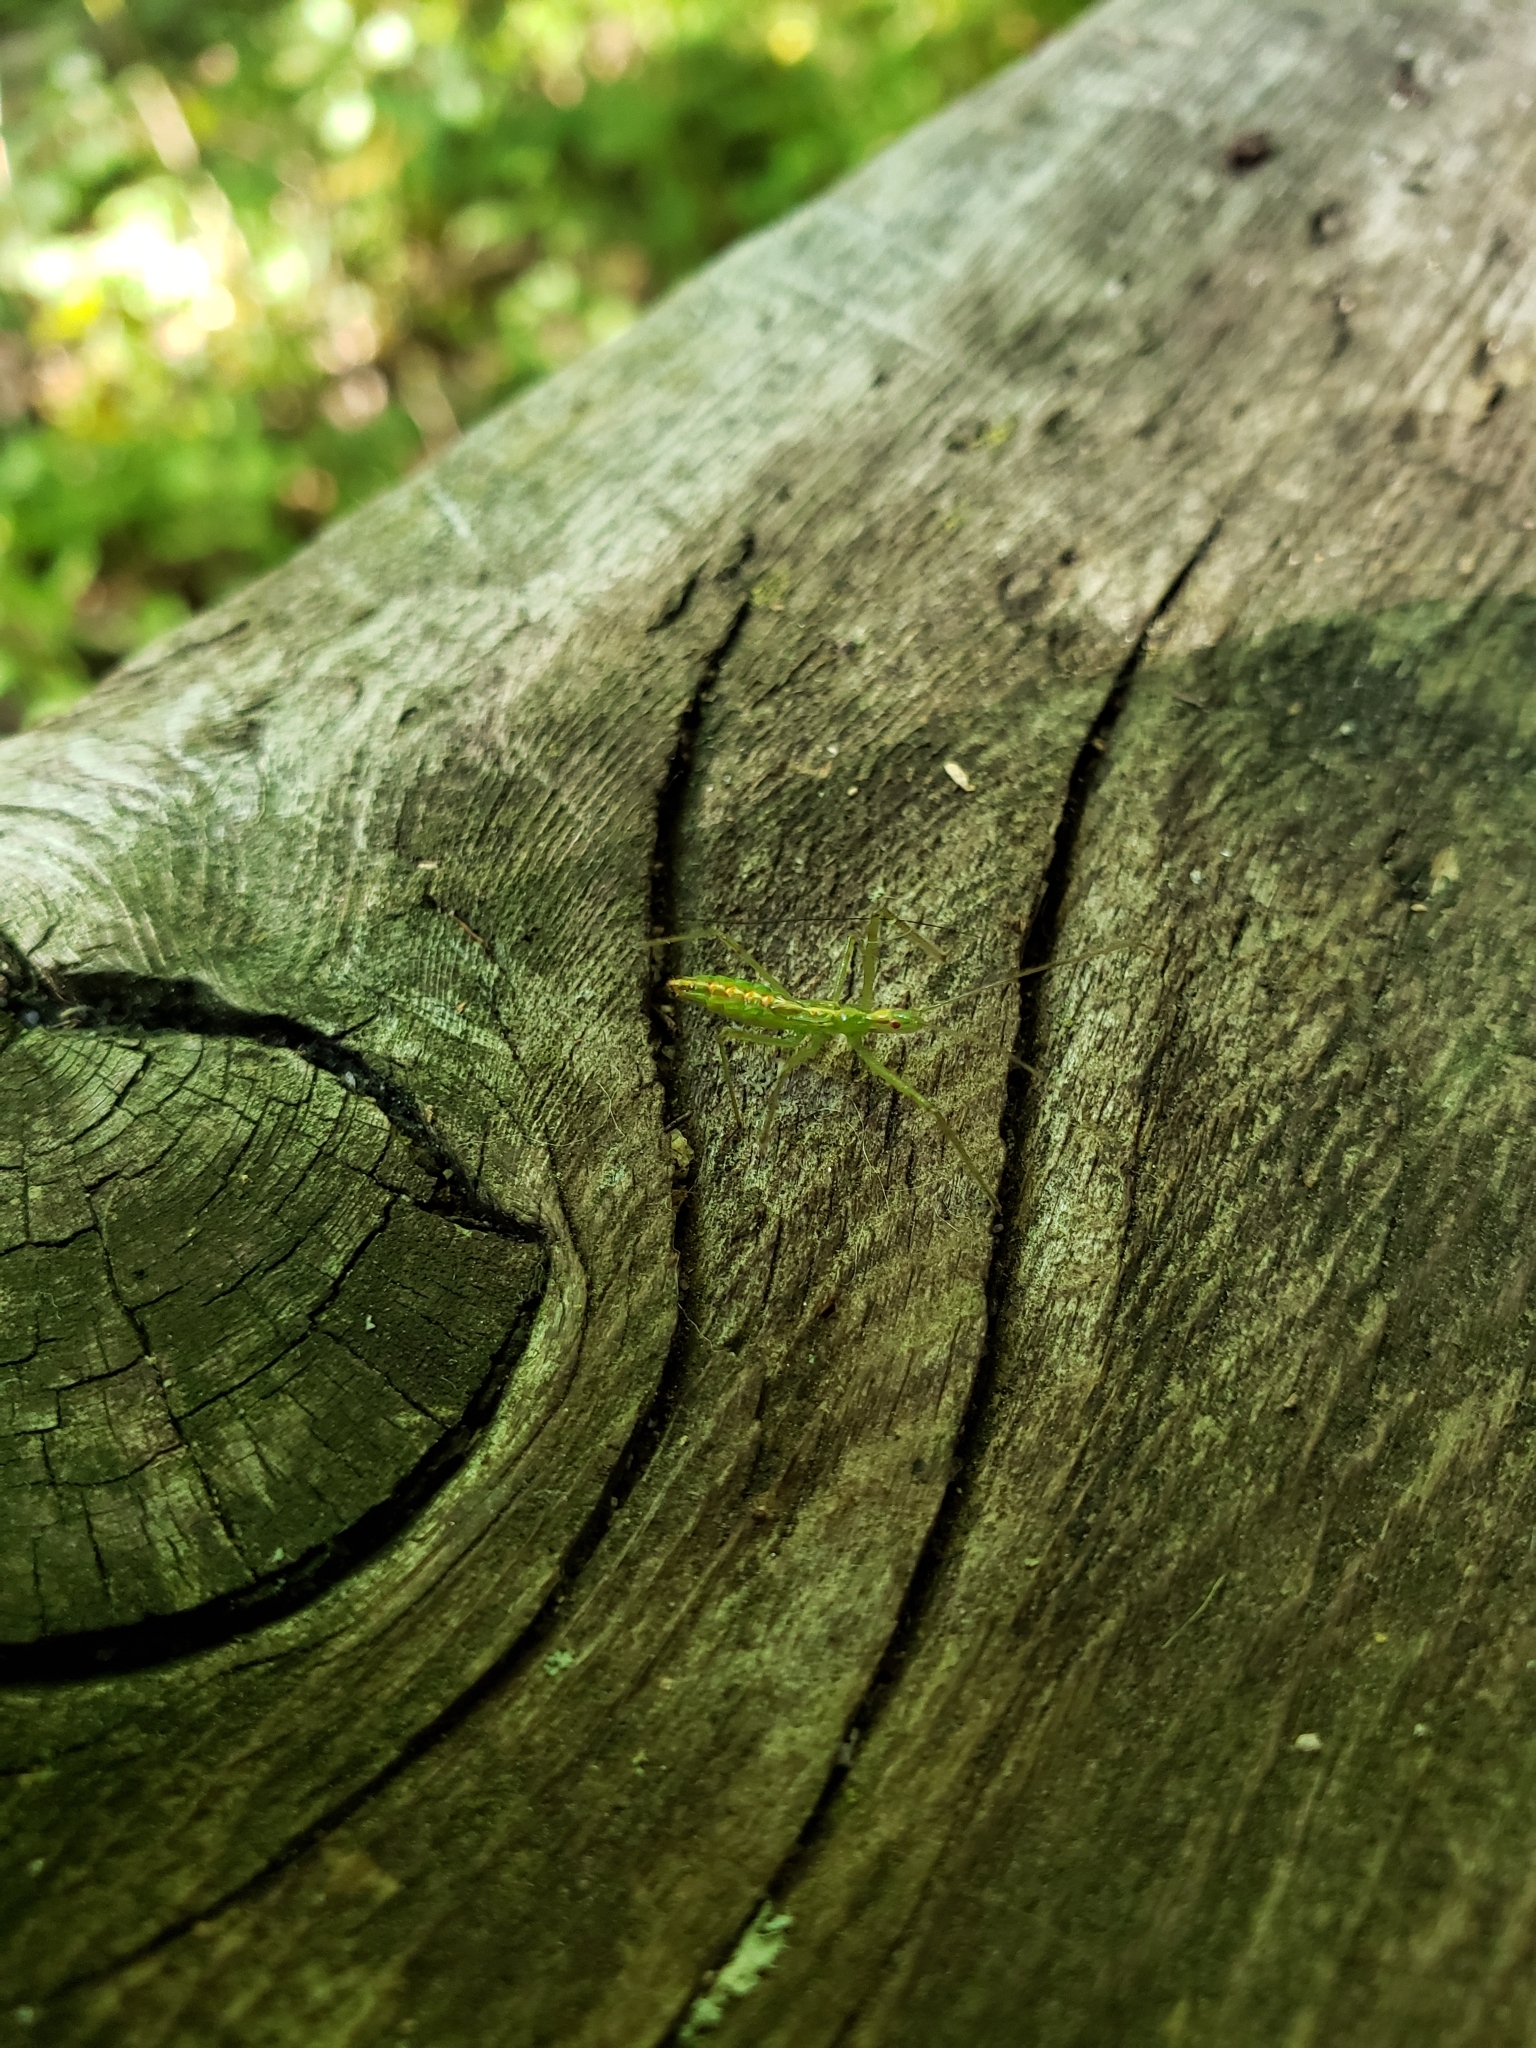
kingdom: Animalia
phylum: Arthropoda
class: Insecta
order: Hemiptera
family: Reduviidae
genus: Zelus
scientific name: Zelus luridus
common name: Pale green assassin bug
